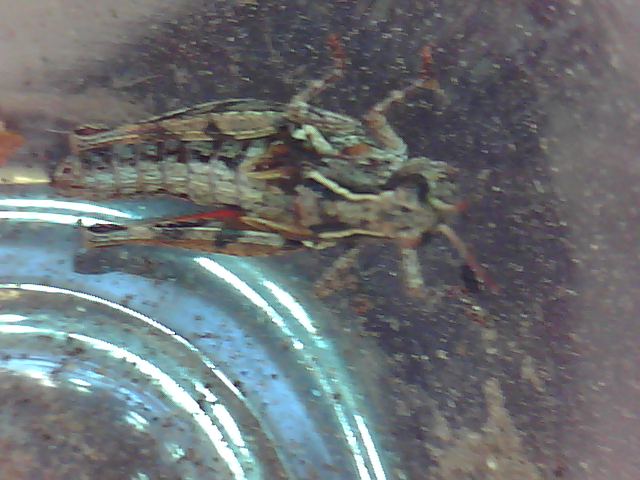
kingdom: Animalia
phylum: Arthropoda
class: Insecta
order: Orthoptera
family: Acrididae
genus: Phaulacridium
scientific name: Phaulacridium marginale
